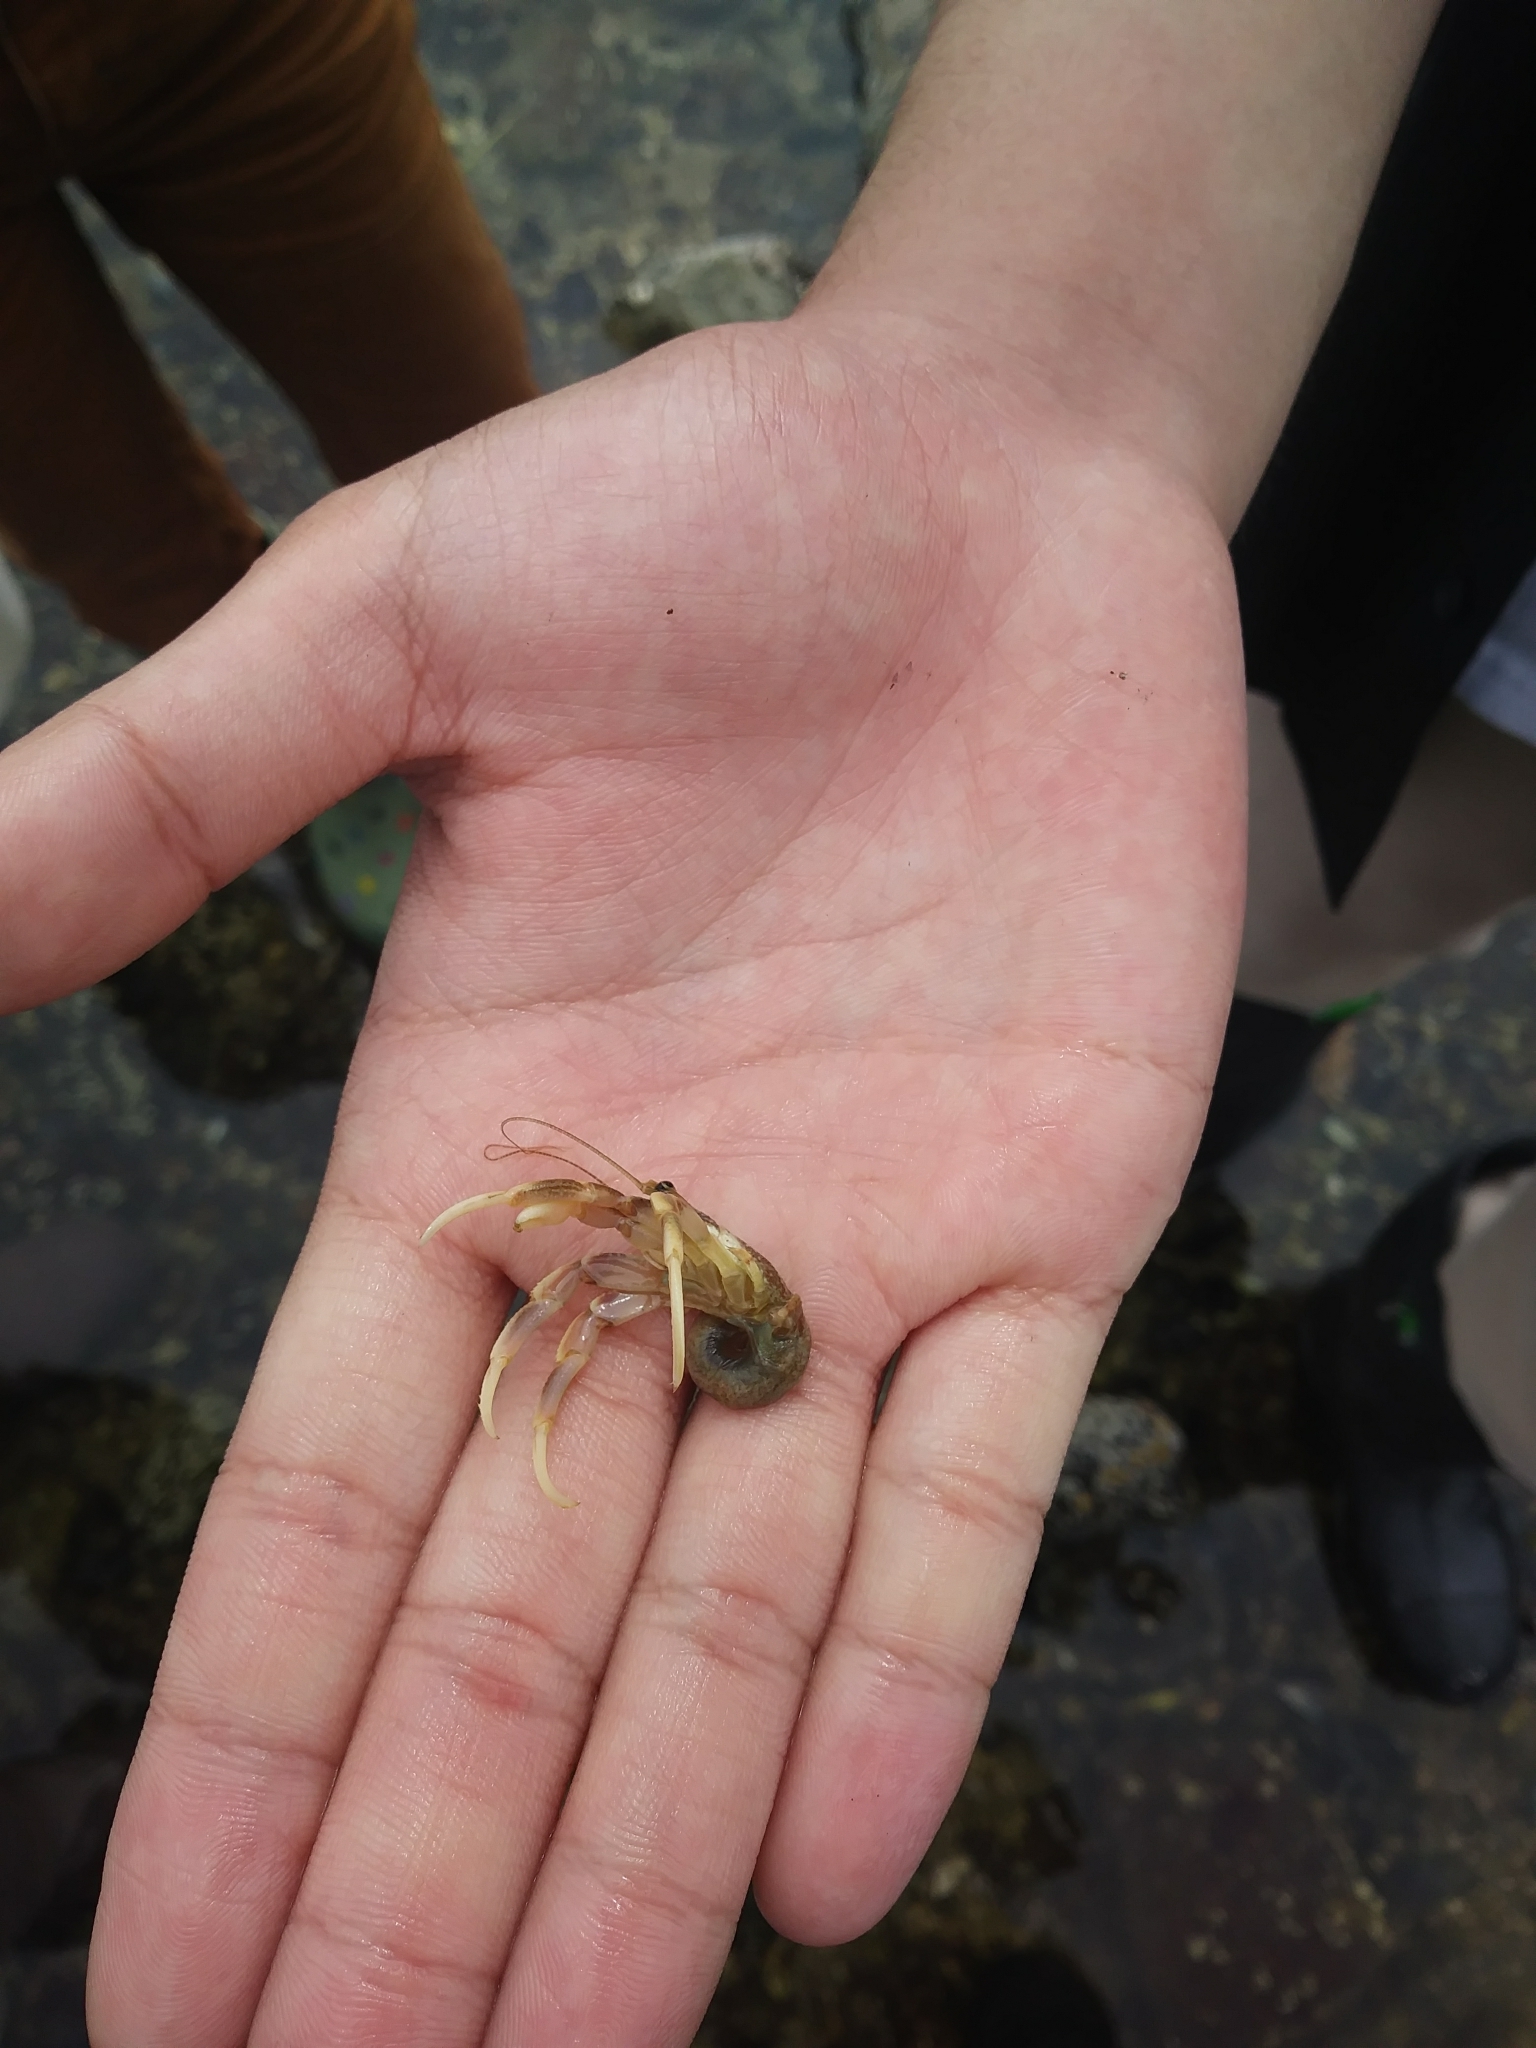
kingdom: Animalia
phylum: Arthropoda
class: Malacostraca
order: Decapoda
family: Paguridae
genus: Pagurus
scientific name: Pagurus longicarpus
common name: Long-armed hermit crab
